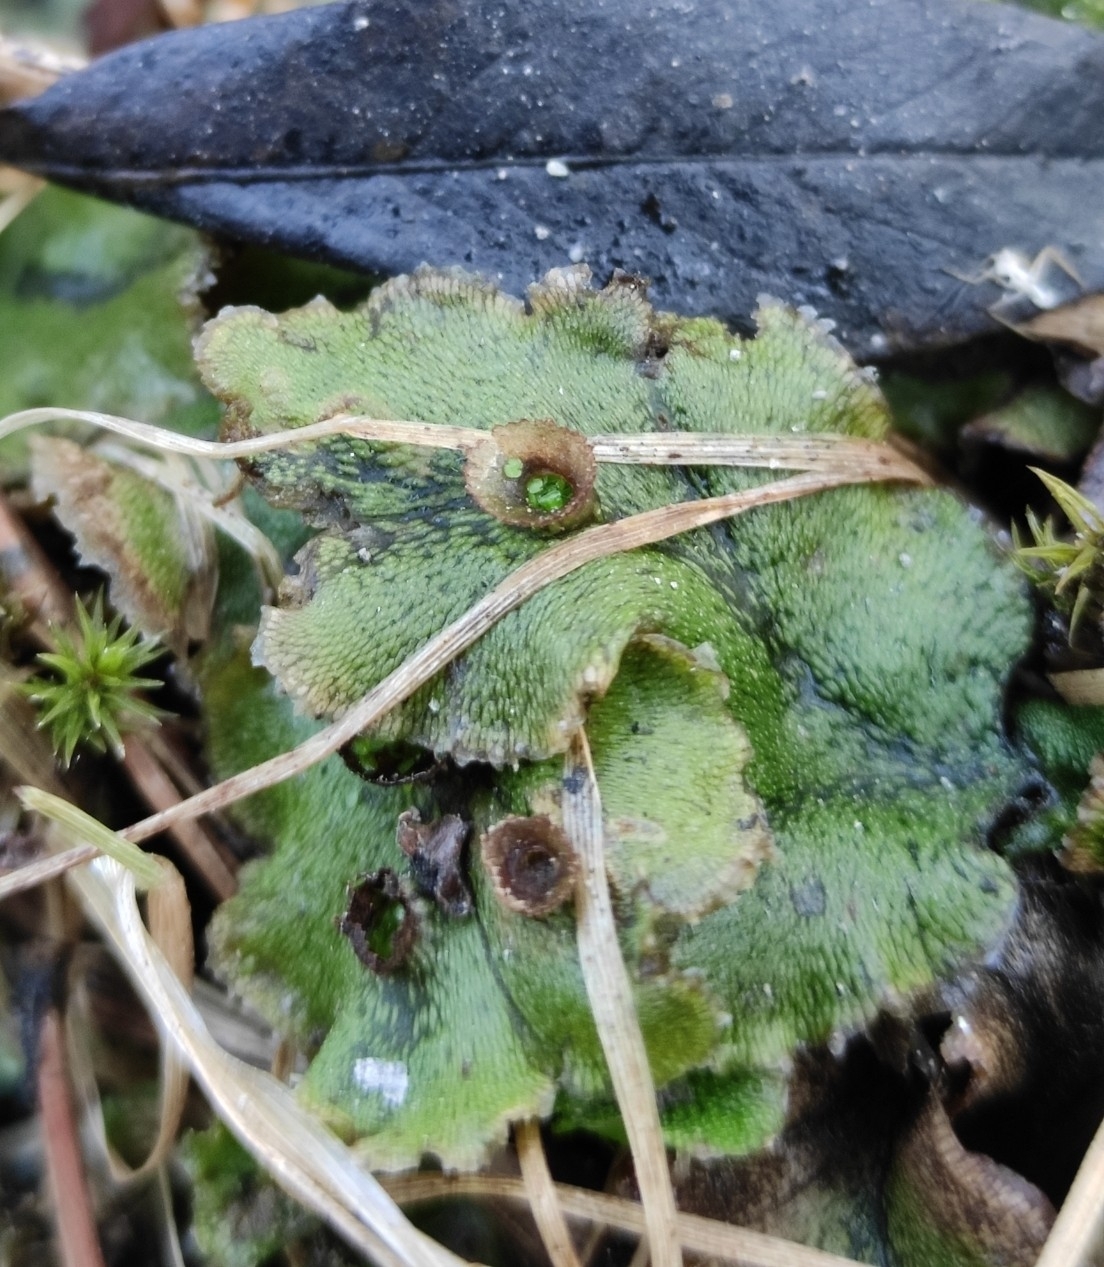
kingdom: Plantae
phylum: Marchantiophyta
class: Marchantiopsida
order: Marchantiales
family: Marchantiaceae
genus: Marchantia
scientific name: Marchantia polymorpha
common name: Common liverwort
